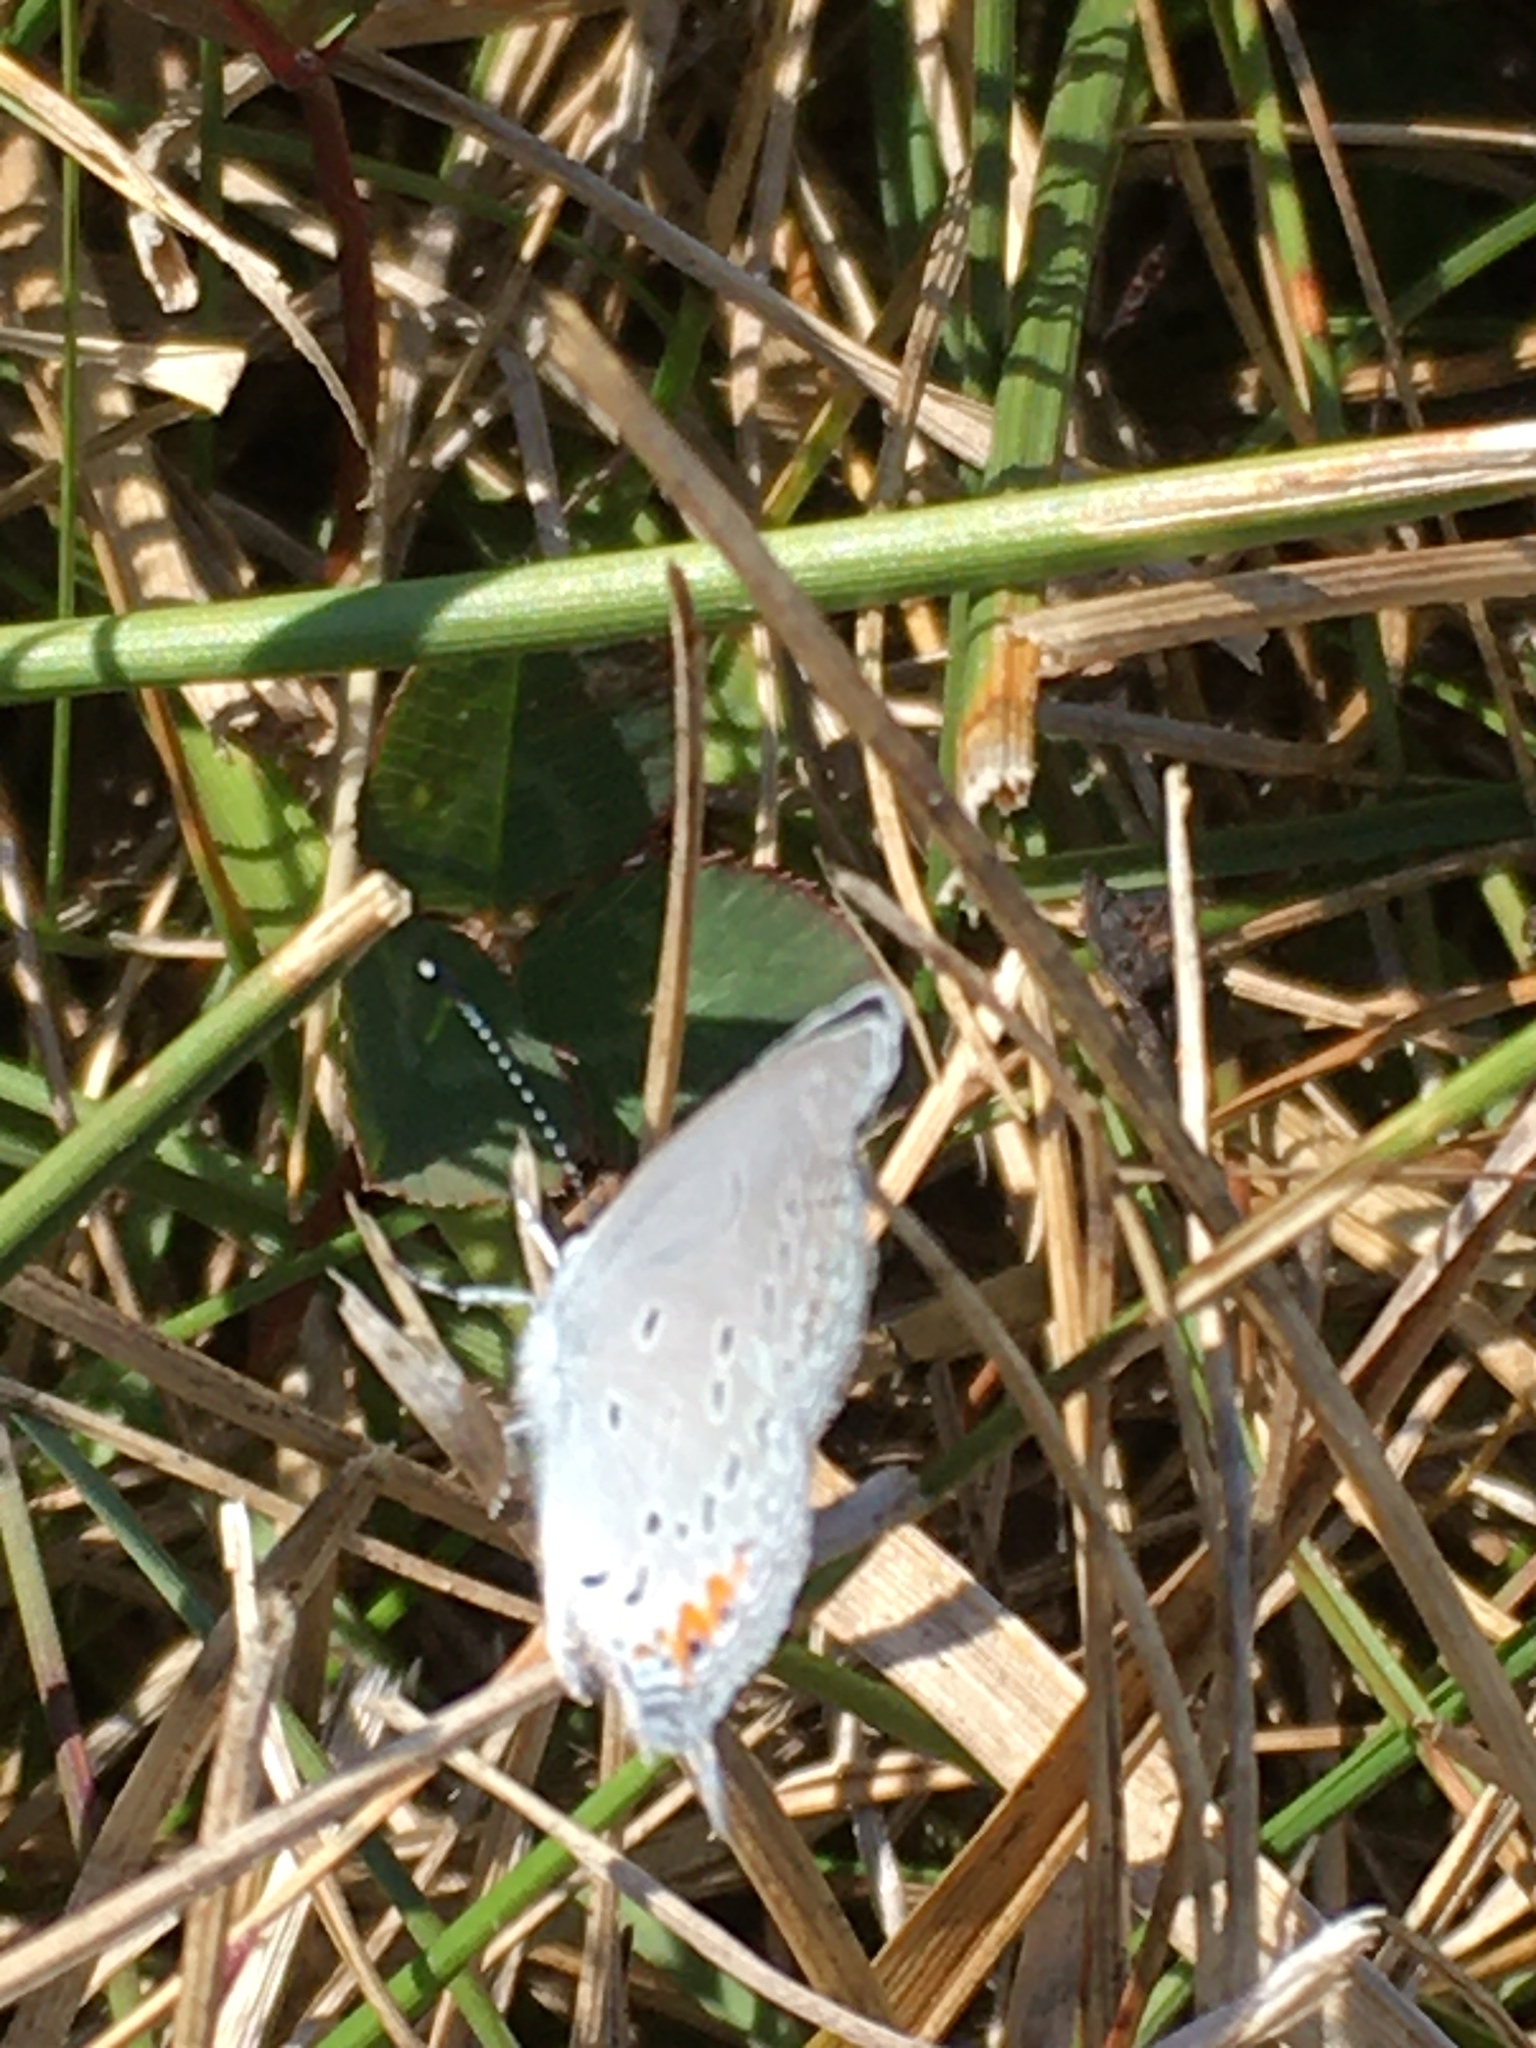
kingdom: Animalia
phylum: Arthropoda
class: Insecta
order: Lepidoptera
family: Lycaenidae
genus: Elkalyce
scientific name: Elkalyce comyntas
